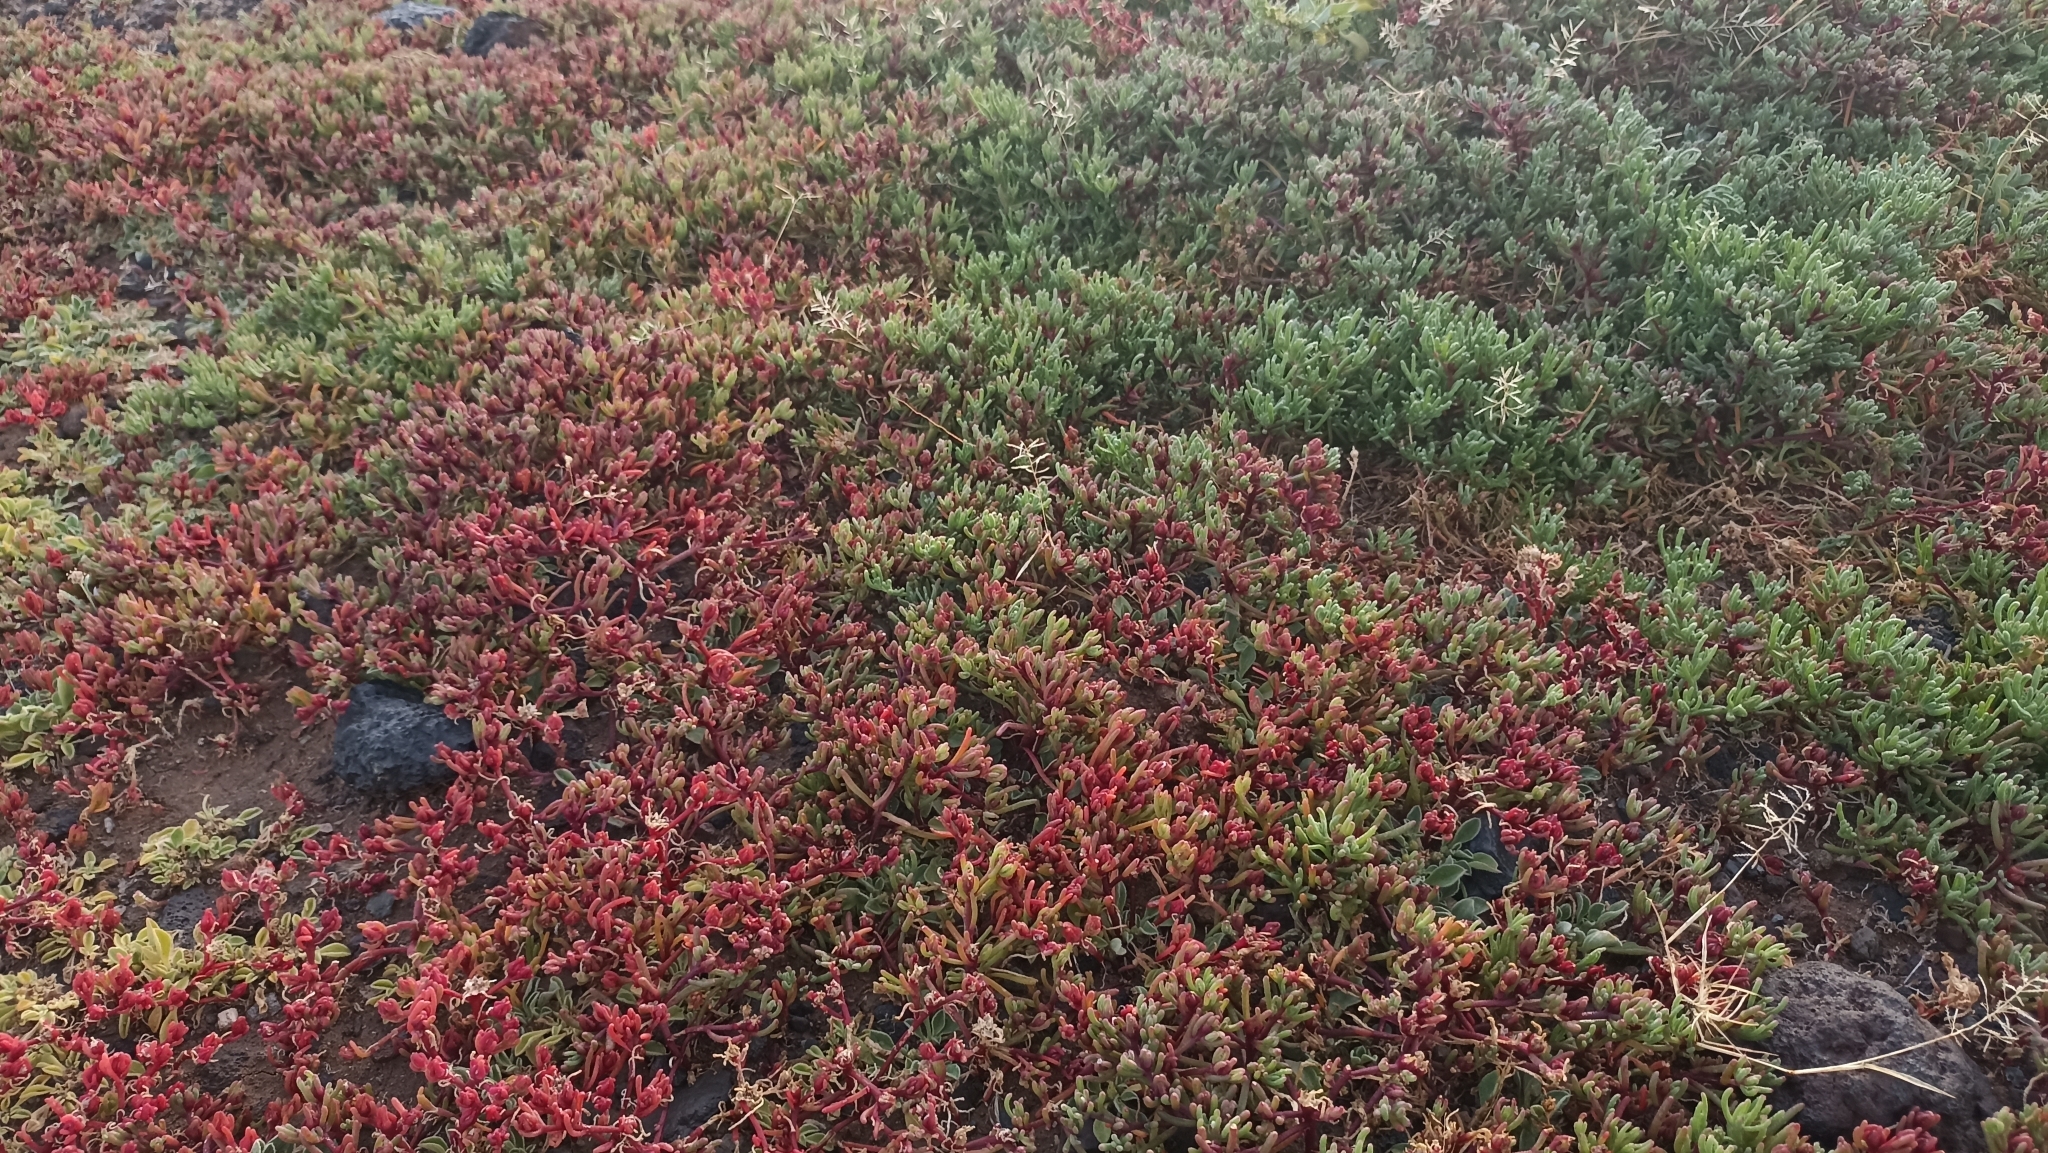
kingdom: Plantae
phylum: Tracheophyta
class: Magnoliopsida
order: Caryophyllales
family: Aizoaceae
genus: Mesembryanthemum
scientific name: Mesembryanthemum nodiflorum
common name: Slenderleaf iceplant
